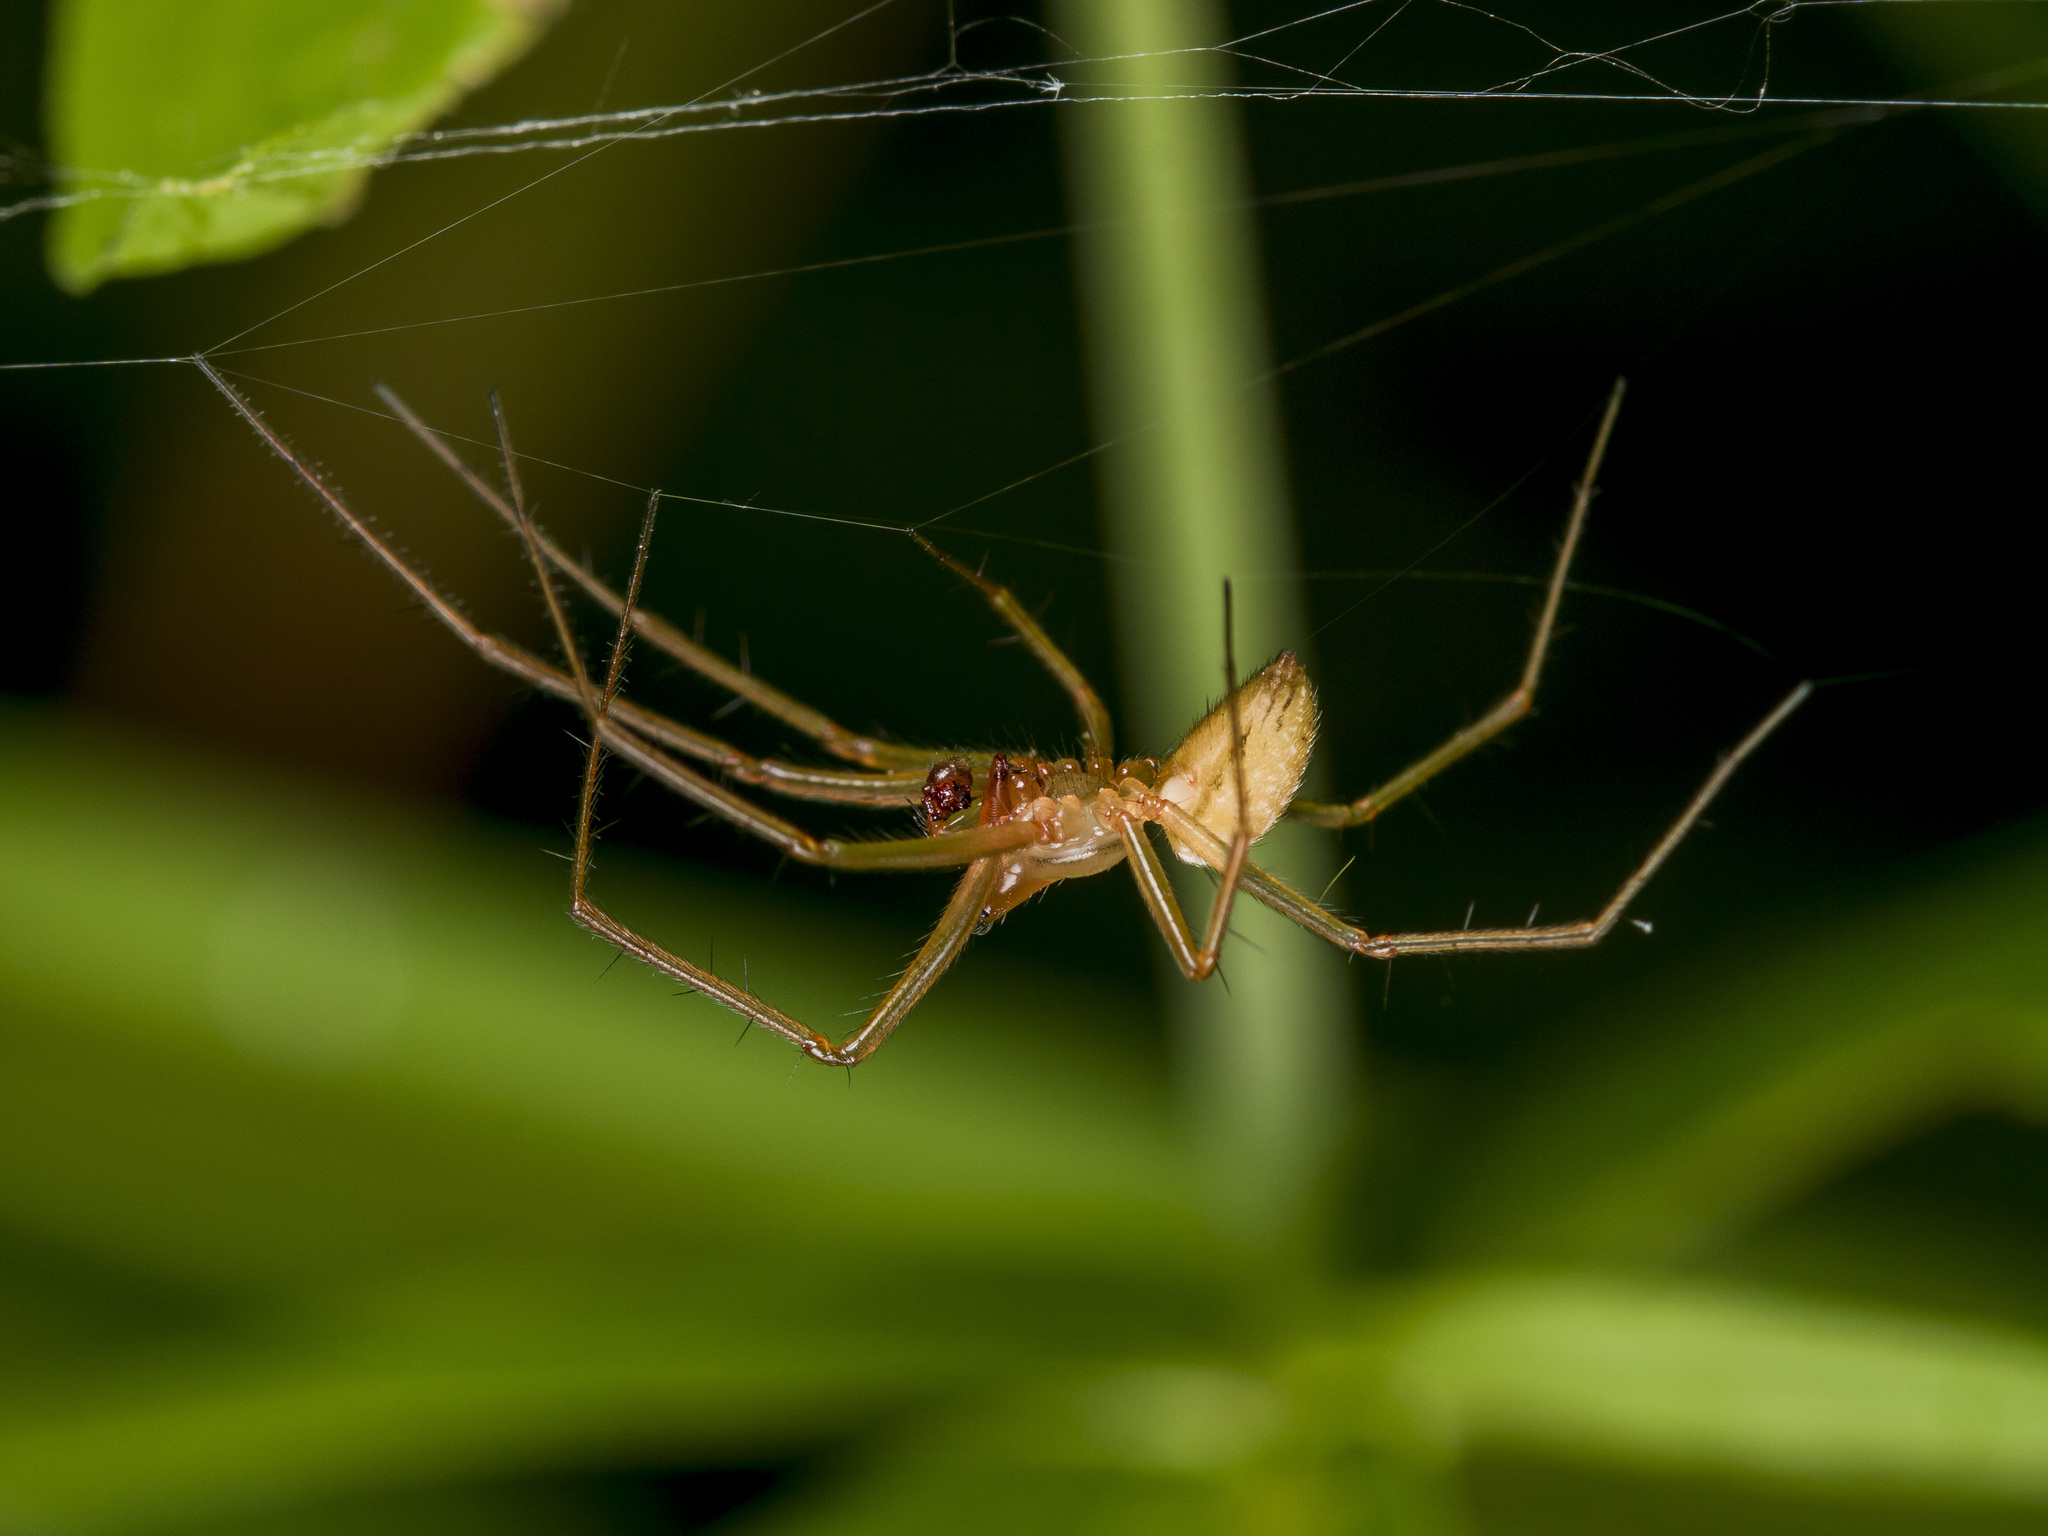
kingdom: Animalia
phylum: Arthropoda
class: Arachnida
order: Araneae
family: Linyphiidae
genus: Bolyphantes
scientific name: Bolyphantes alticeps
